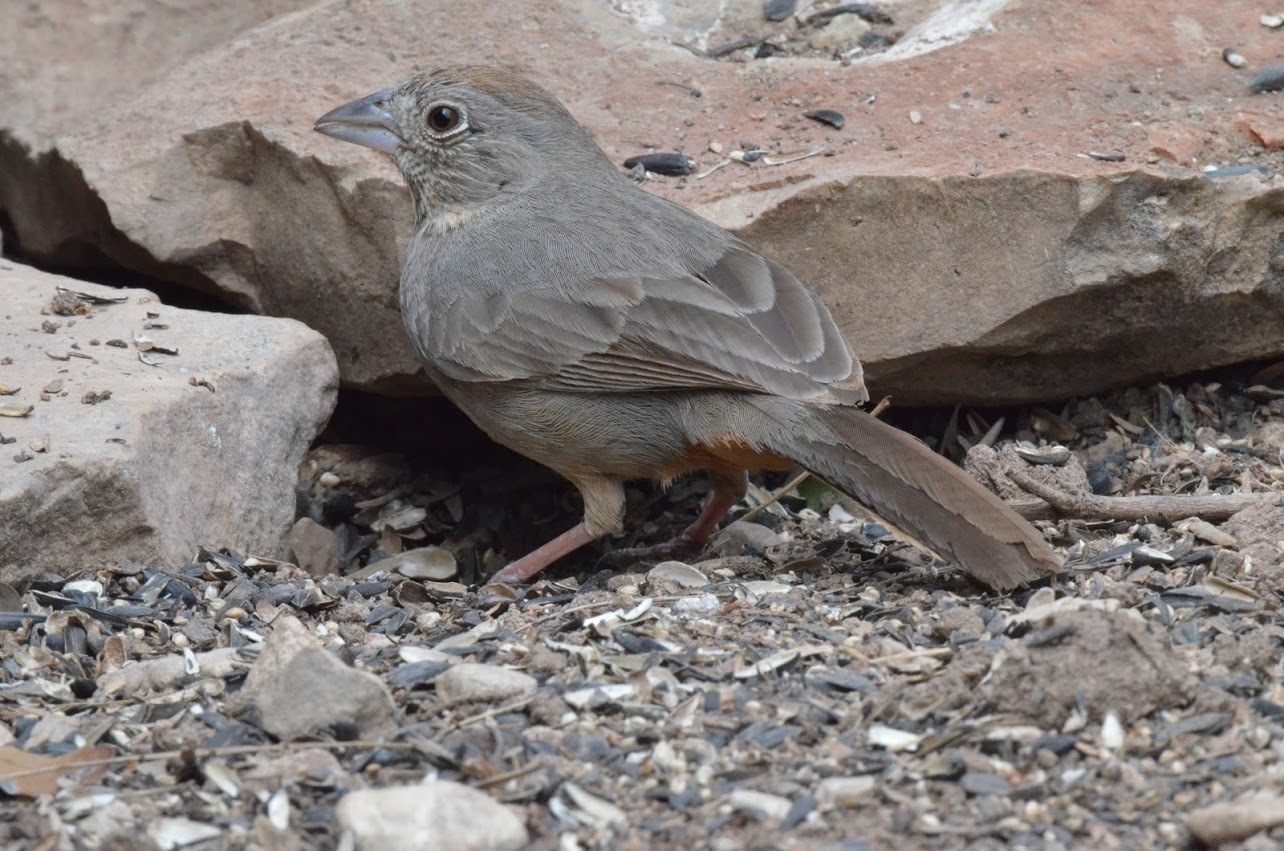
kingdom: Animalia
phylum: Chordata
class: Aves
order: Passeriformes
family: Passerellidae
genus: Melozone
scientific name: Melozone fusca
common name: Canyon towhee
